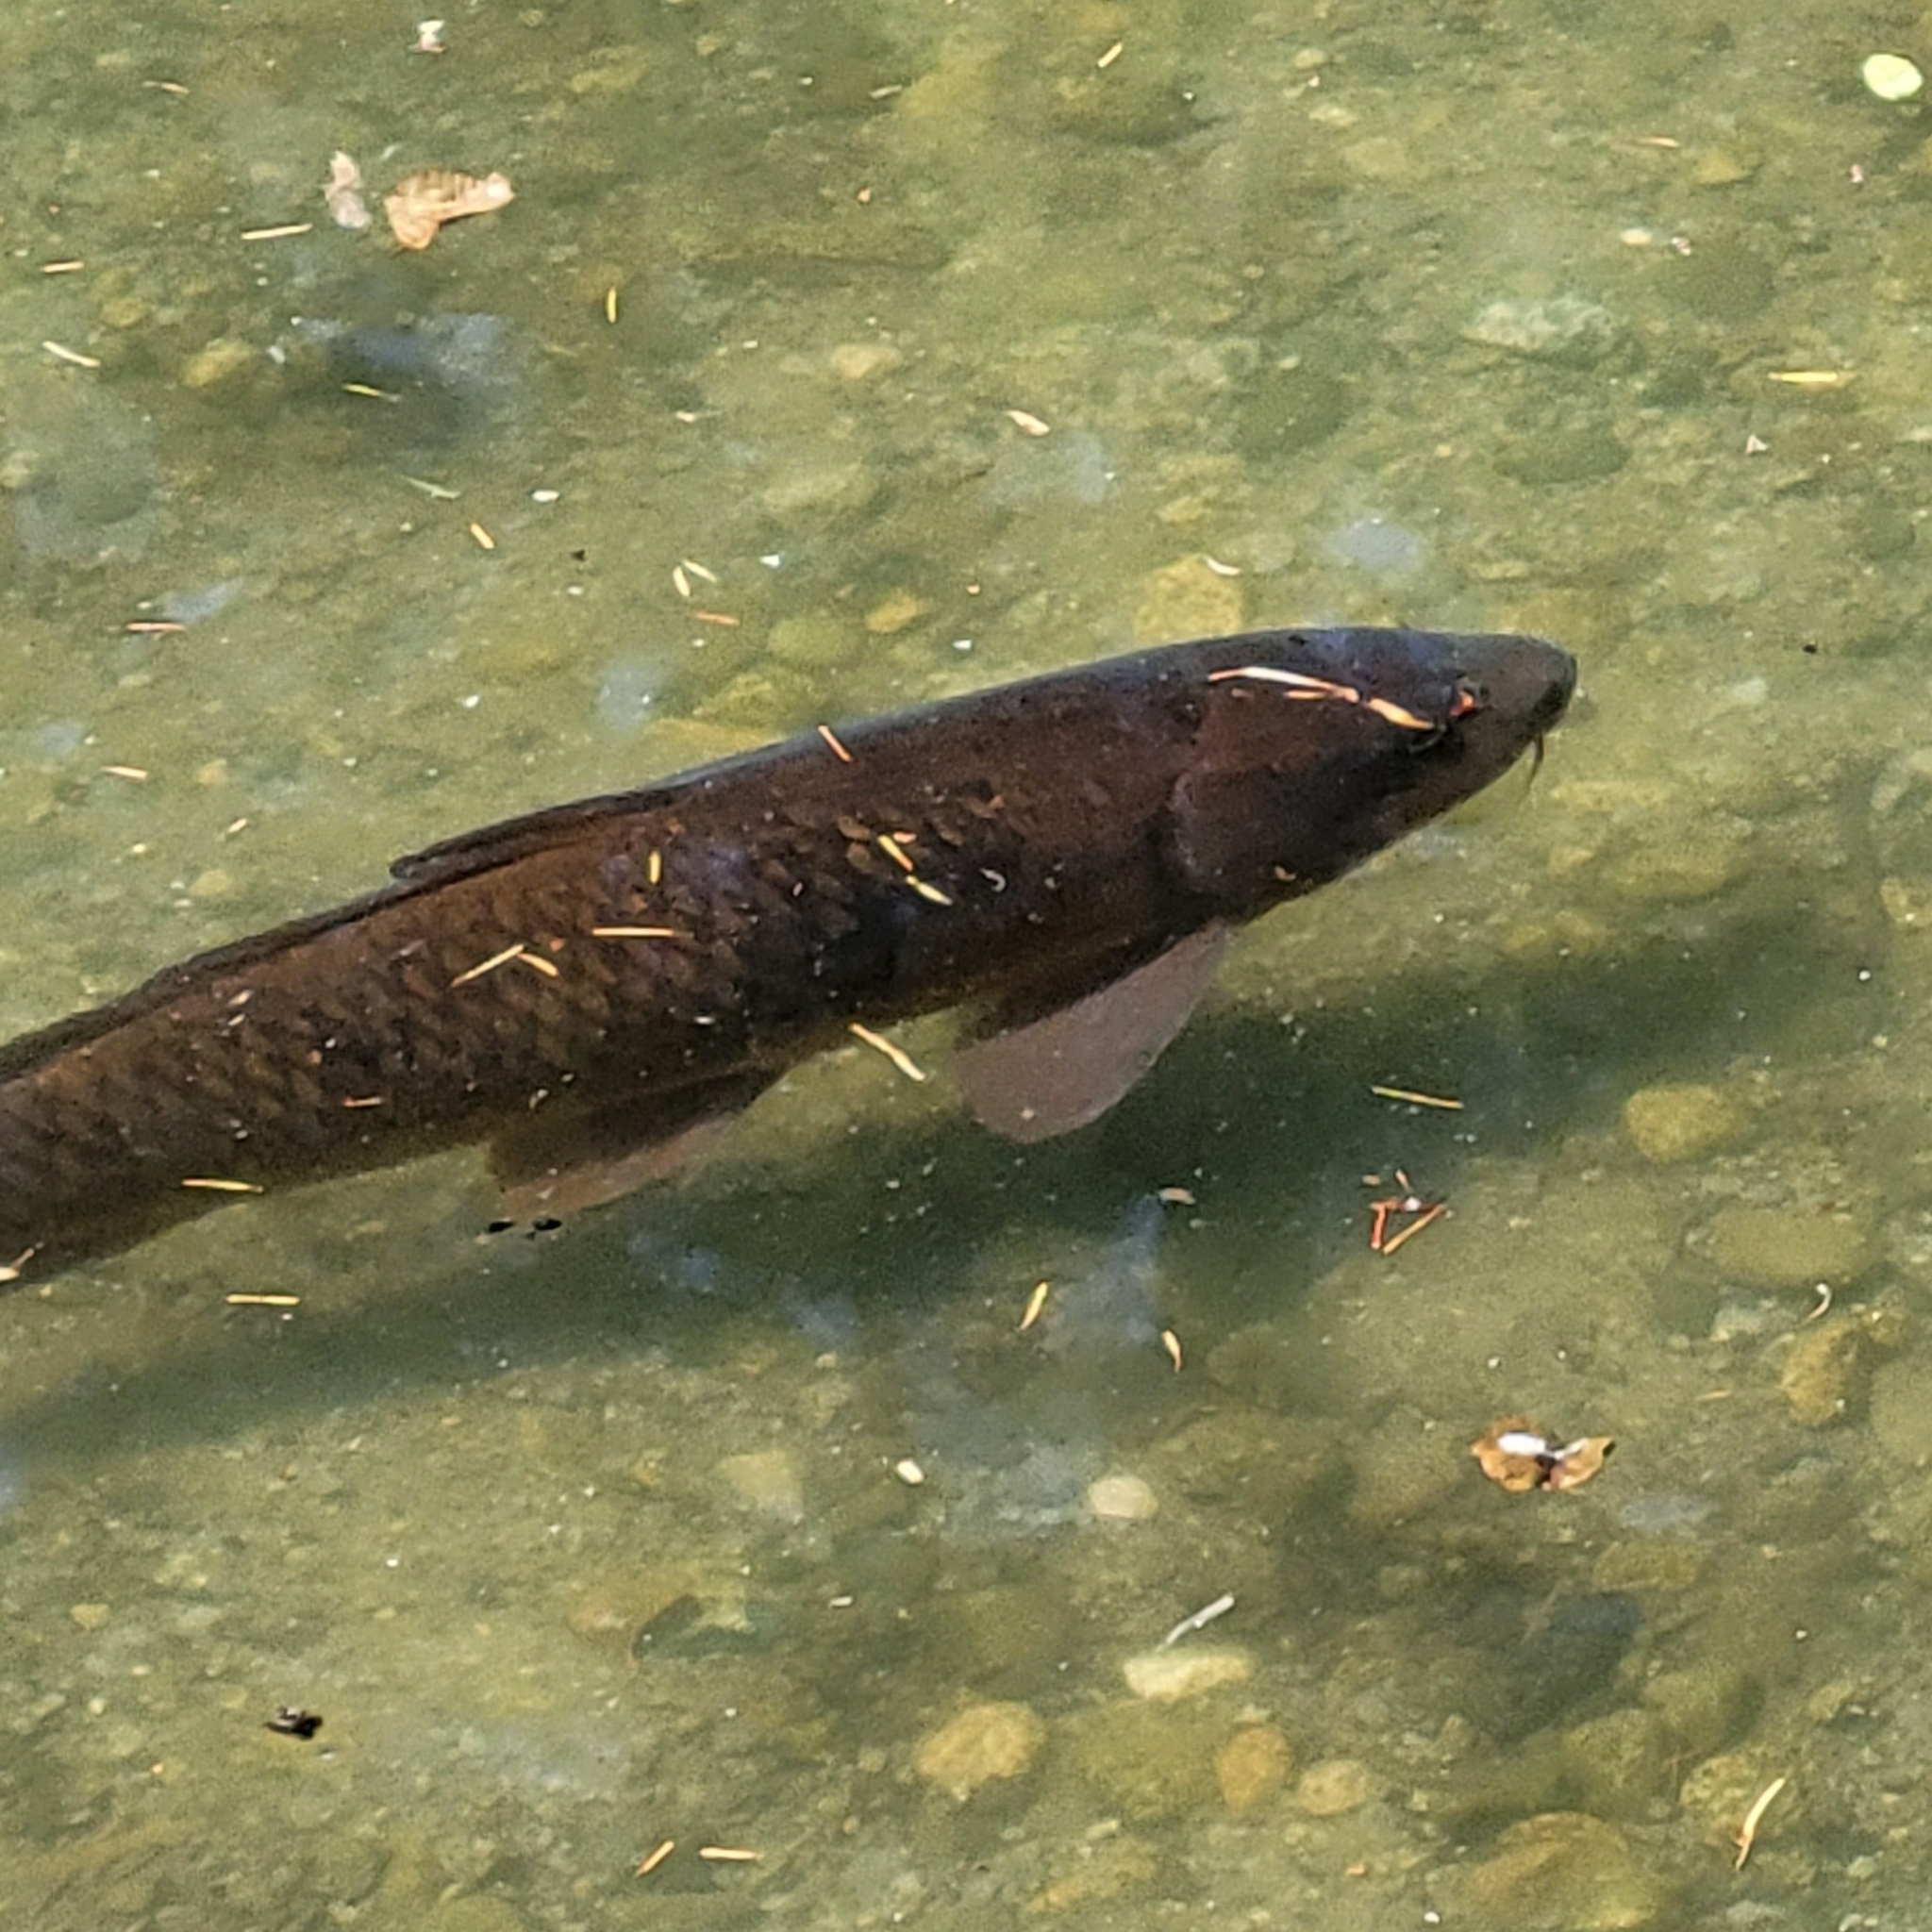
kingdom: Animalia
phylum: Chordata
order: Cypriniformes
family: Cyprinidae
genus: Cyprinus
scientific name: Cyprinus carpio
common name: Common carp
